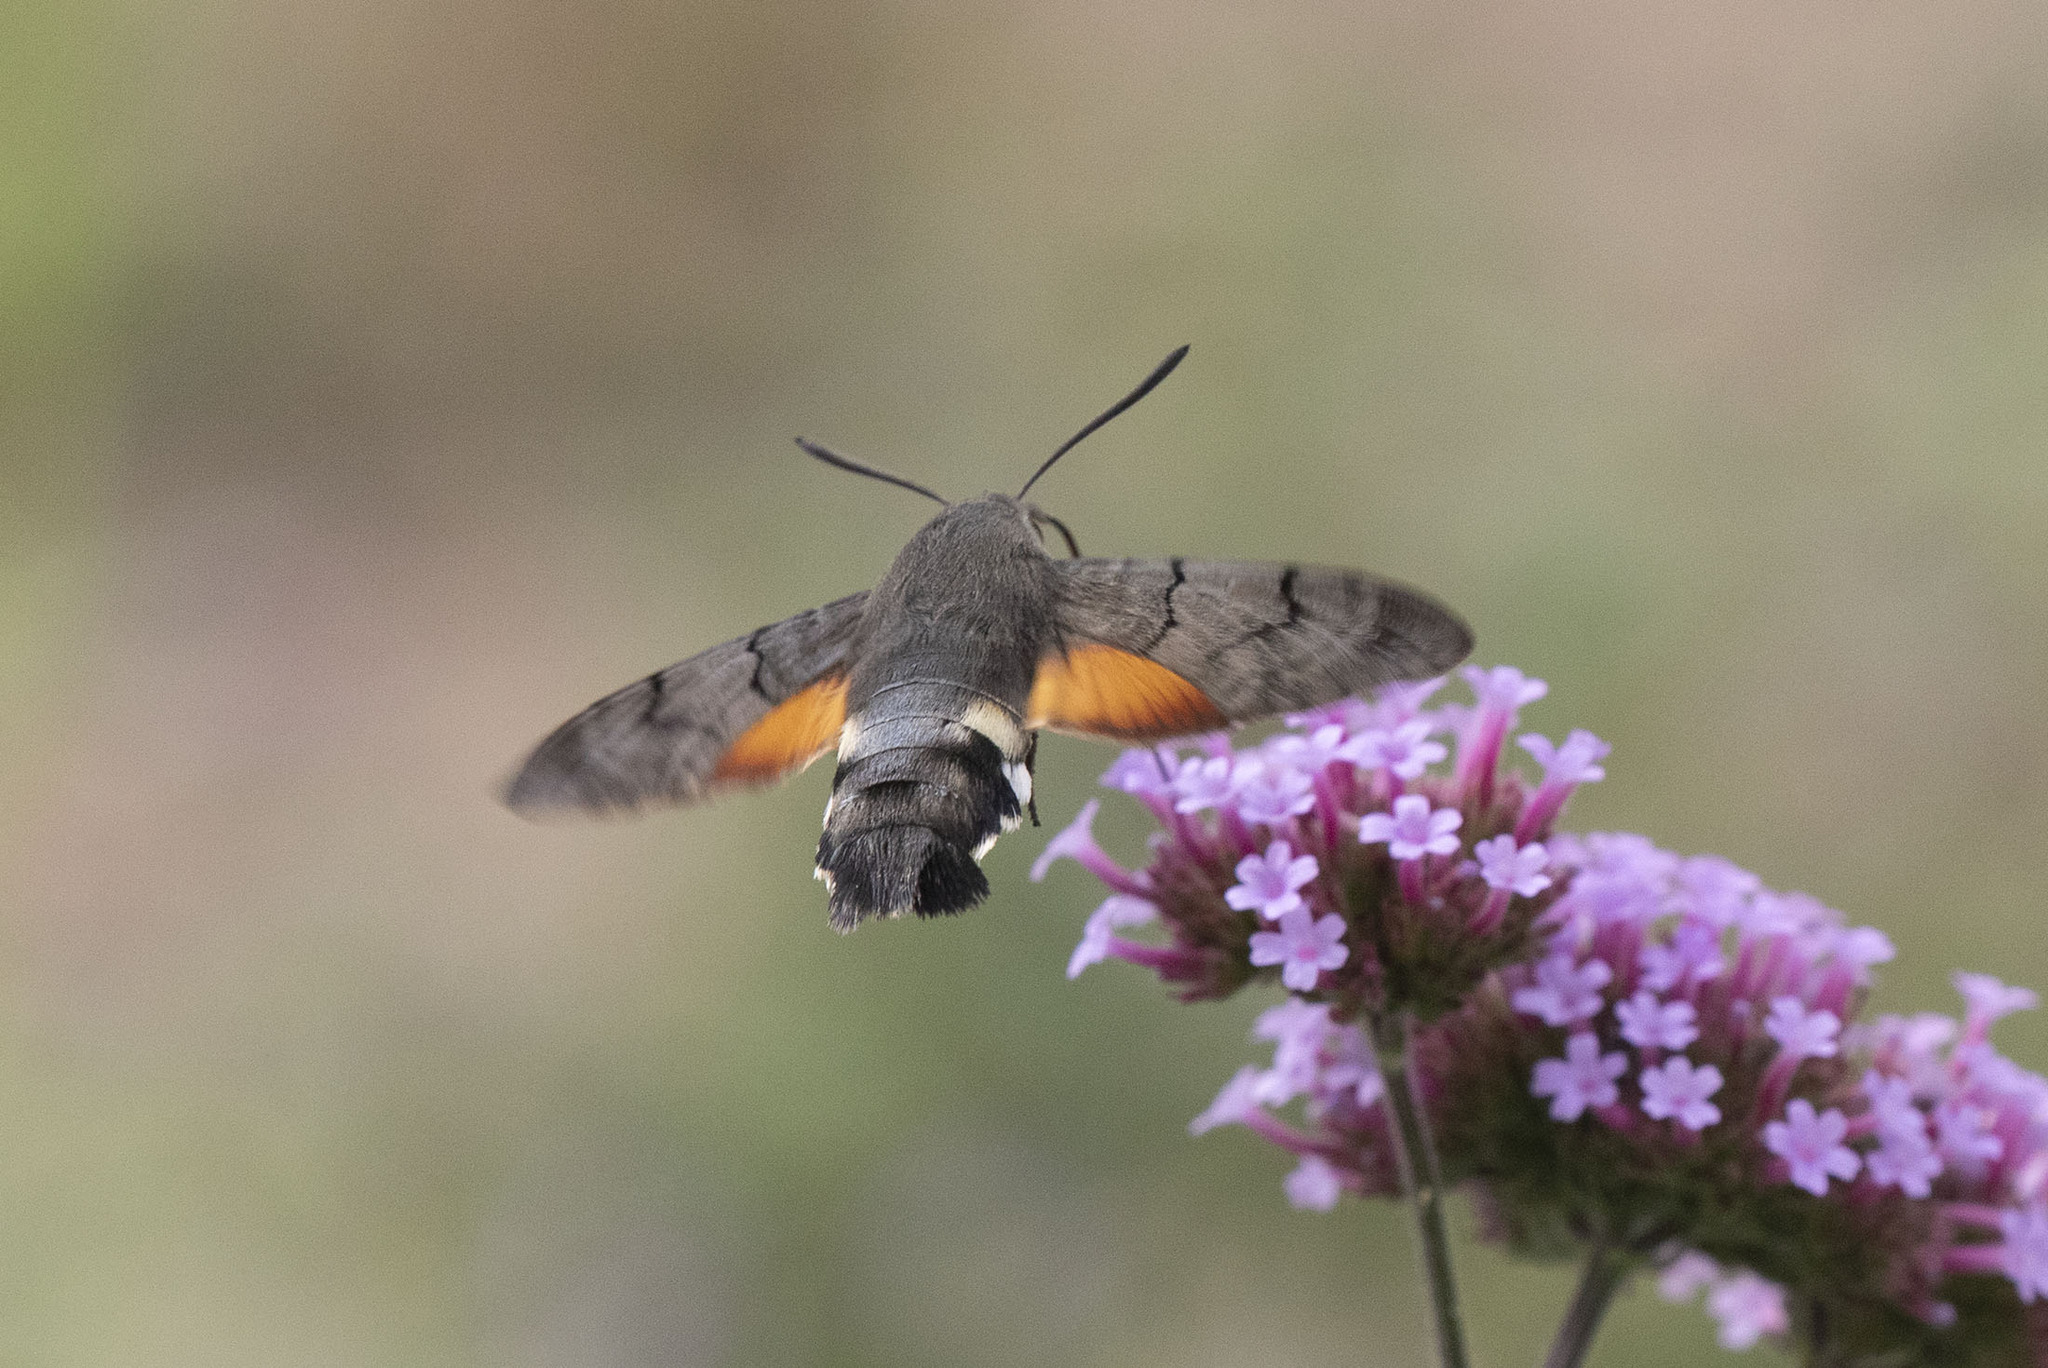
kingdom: Animalia
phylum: Arthropoda
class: Insecta
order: Lepidoptera
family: Sphingidae
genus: Macroglossum
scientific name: Macroglossum stellatarum
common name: Humming-bird hawk-moth
